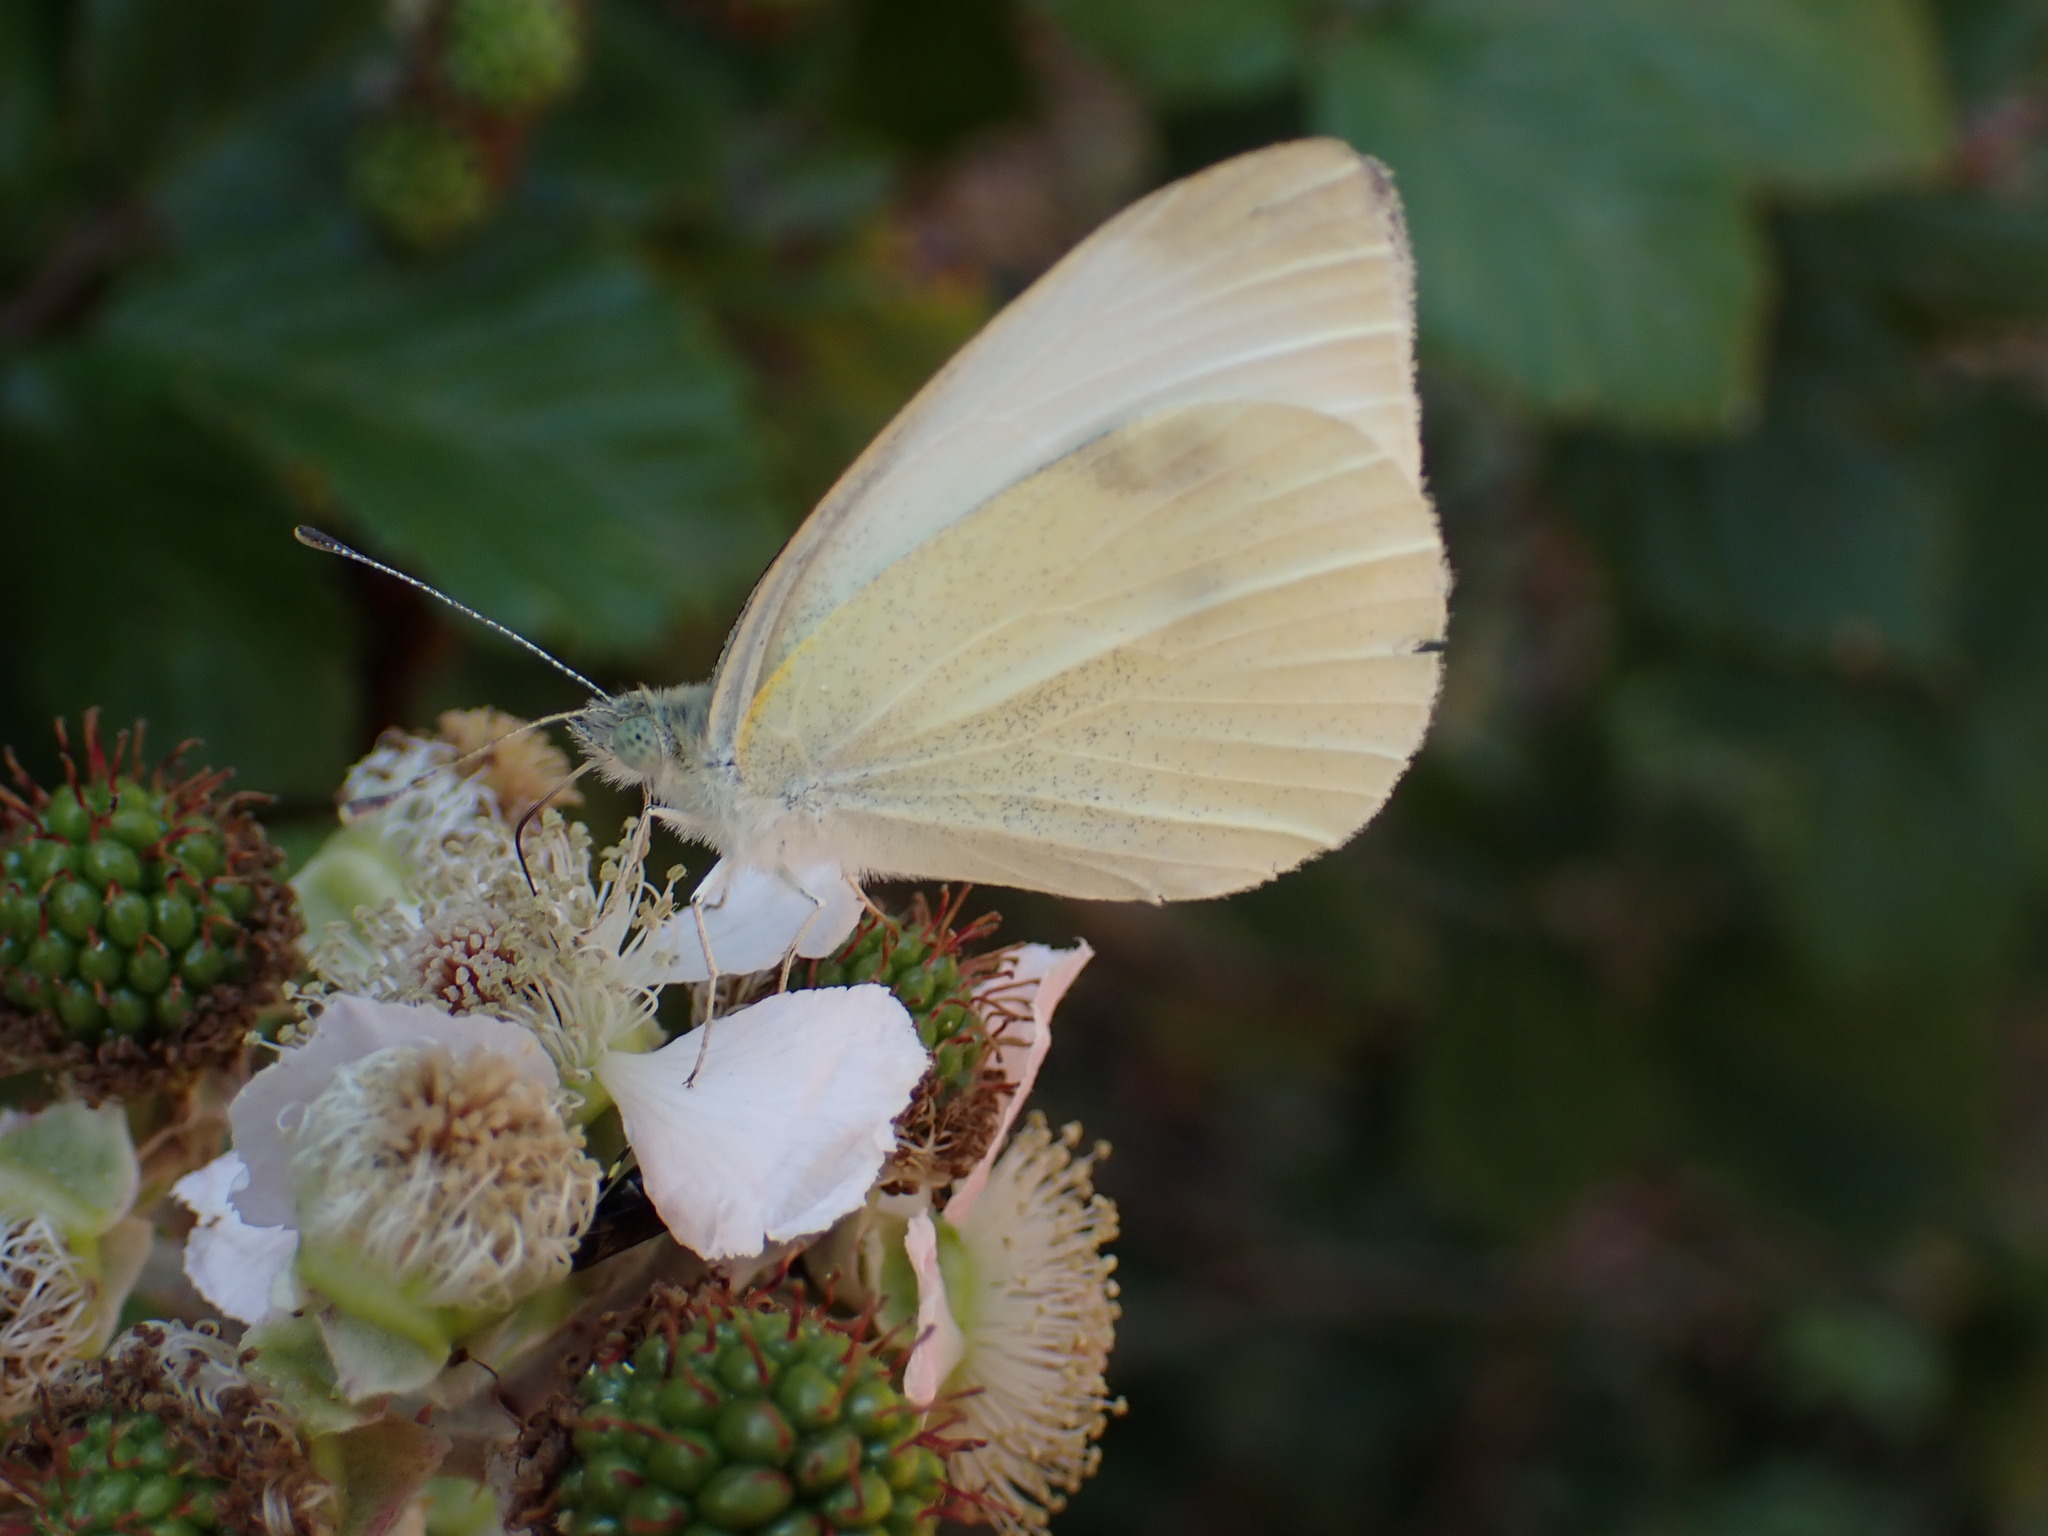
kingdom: Animalia
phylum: Arthropoda
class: Insecta
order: Lepidoptera
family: Pieridae
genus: Pieris
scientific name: Pieris rapae
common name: Small white
